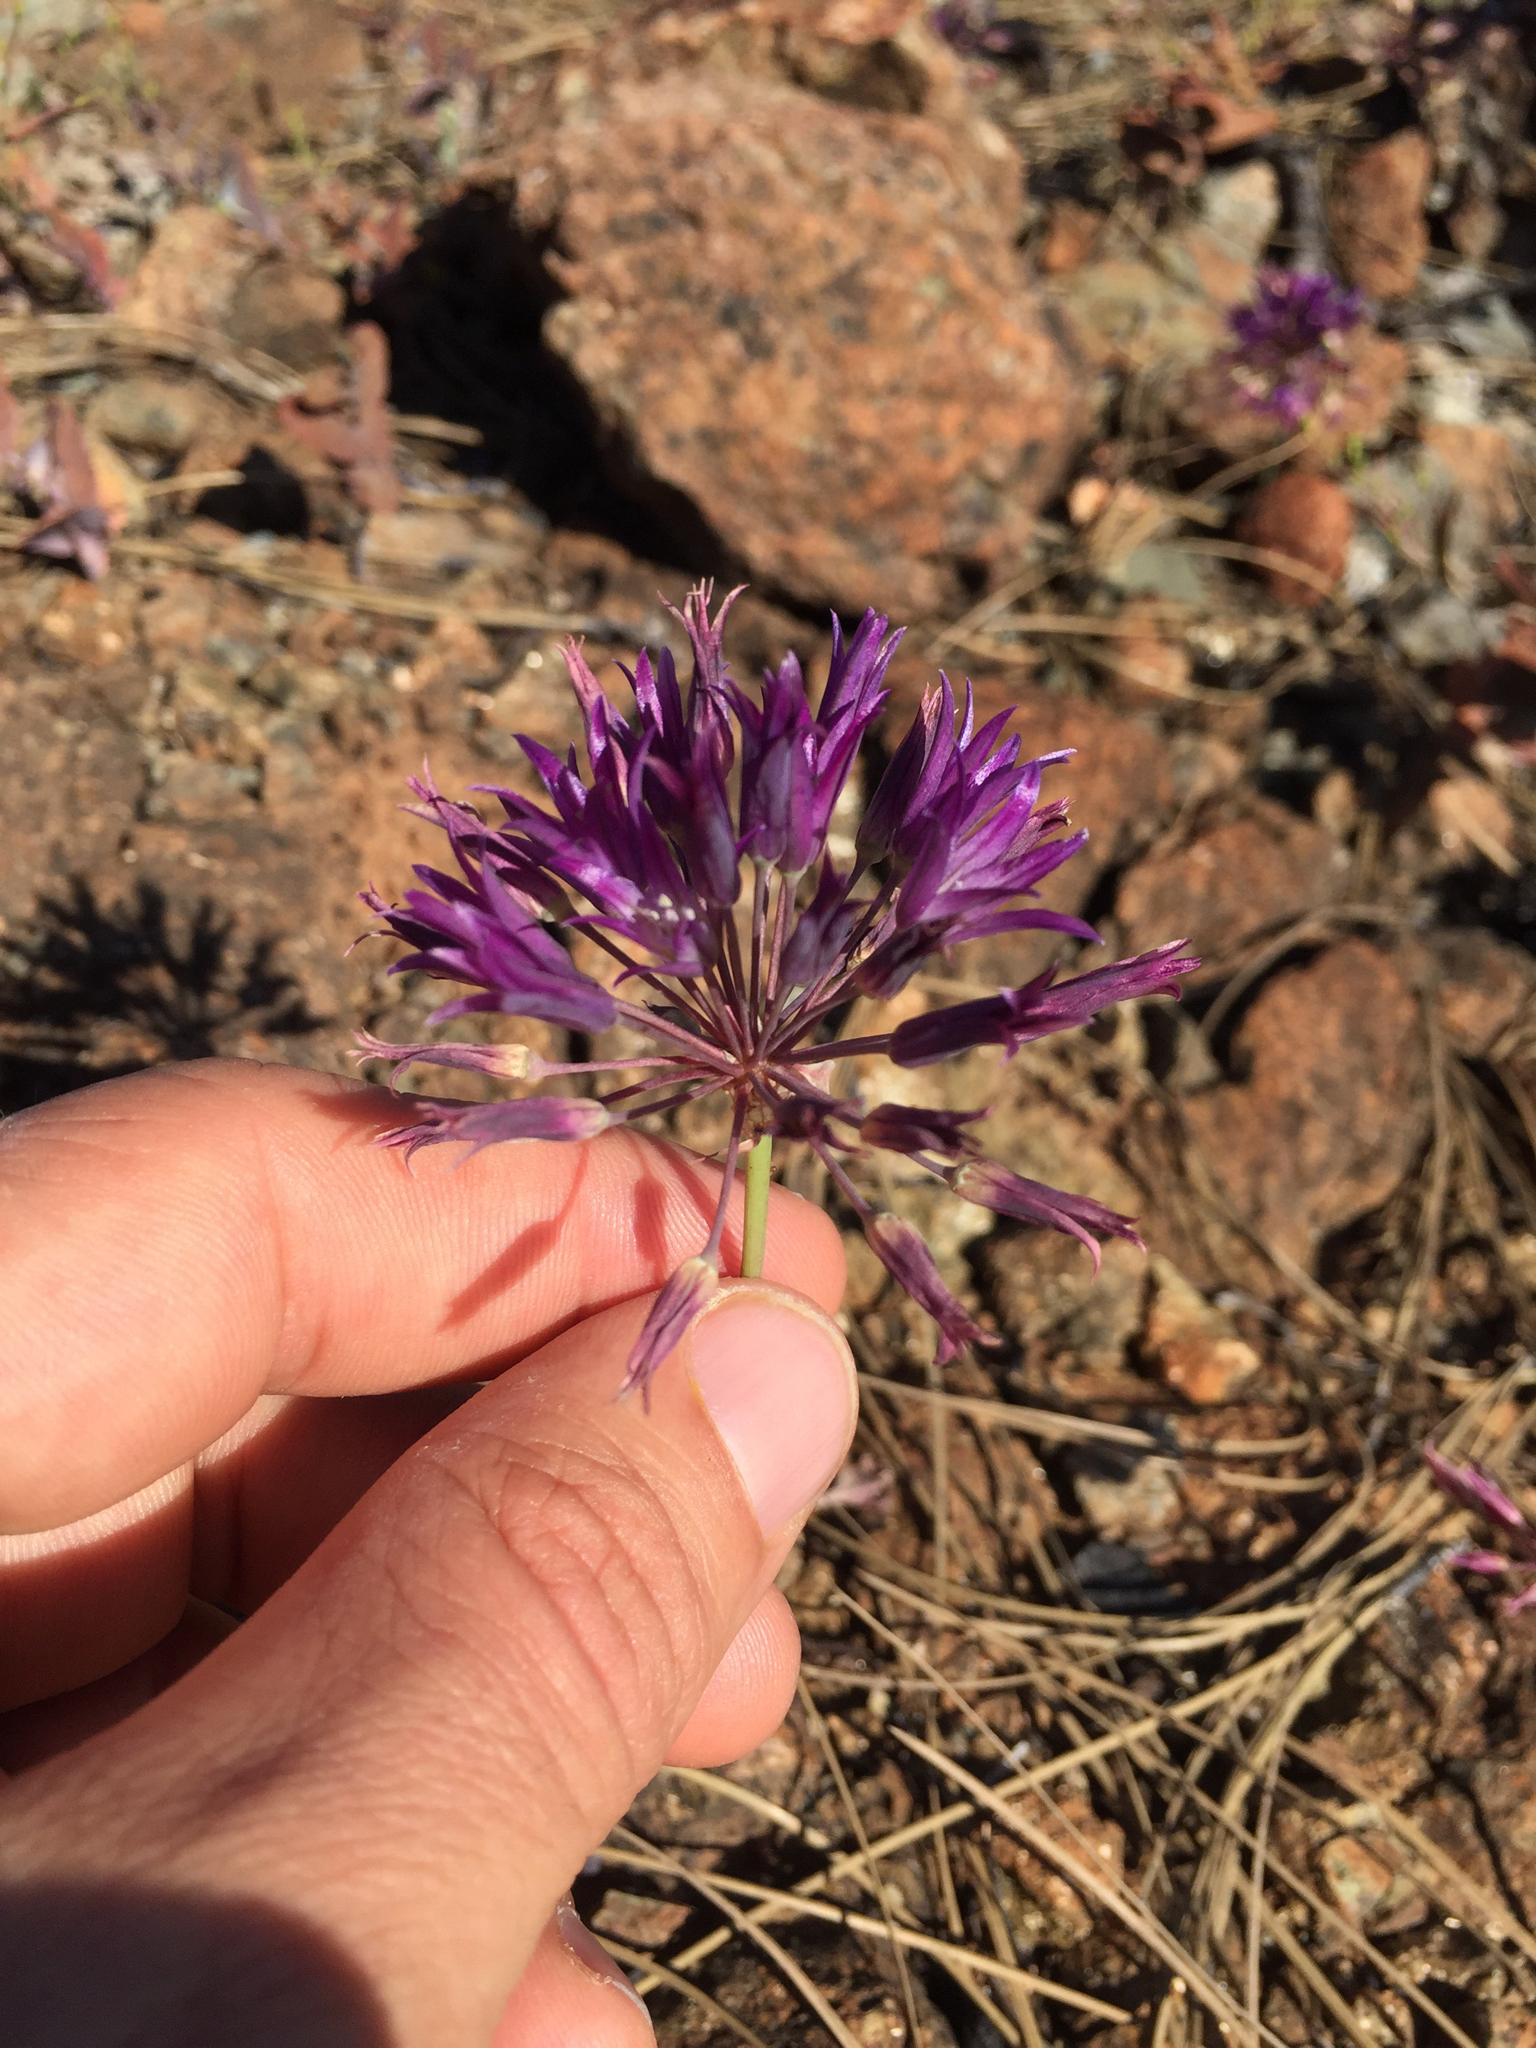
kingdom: Plantae
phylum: Tracheophyta
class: Liliopsida
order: Asparagales
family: Amaryllidaceae
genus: Allium
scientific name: Allium fimbriatum
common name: Fringed onion
